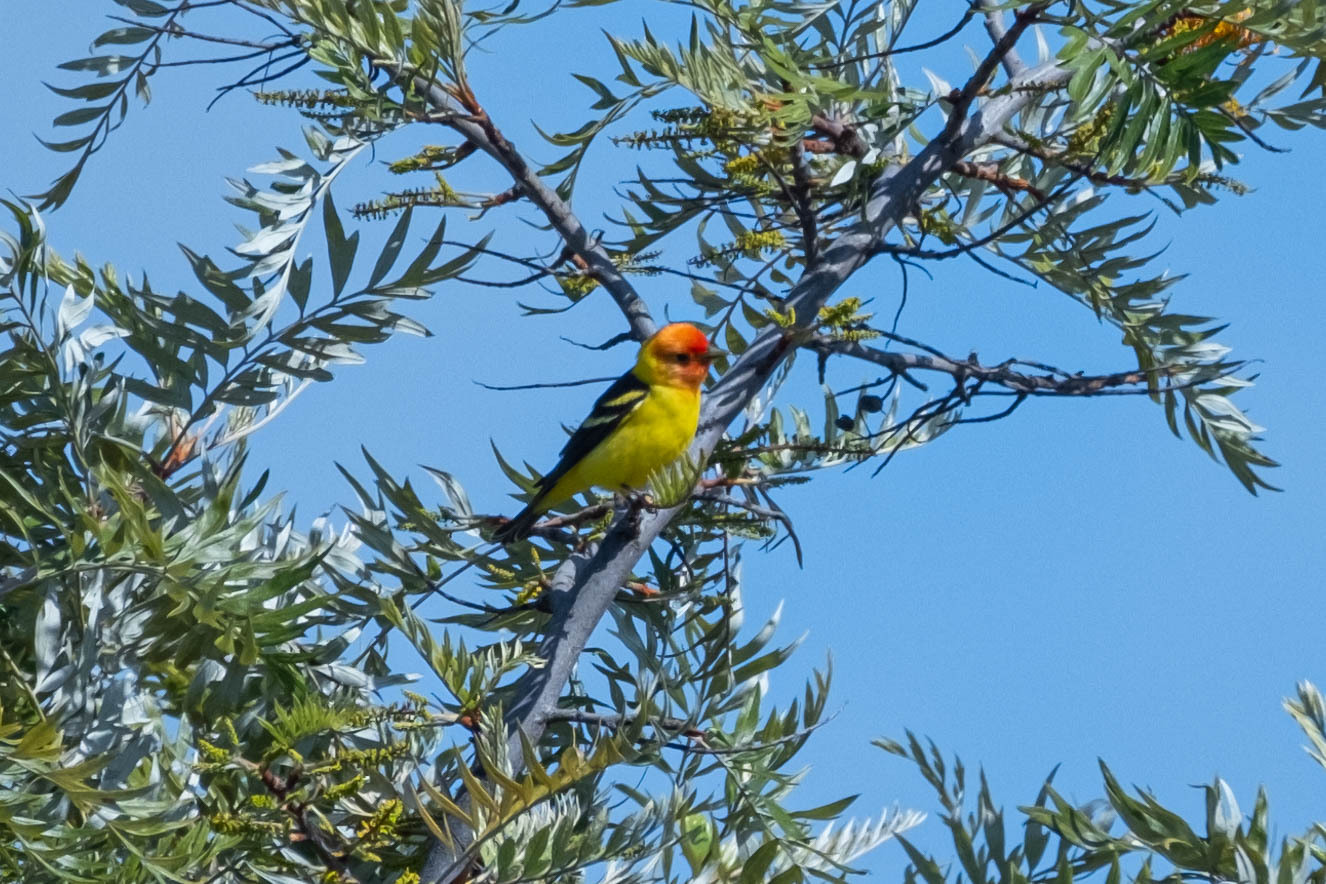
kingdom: Animalia
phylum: Chordata
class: Aves
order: Passeriformes
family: Cardinalidae
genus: Piranga
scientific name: Piranga ludoviciana
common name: Western tanager
